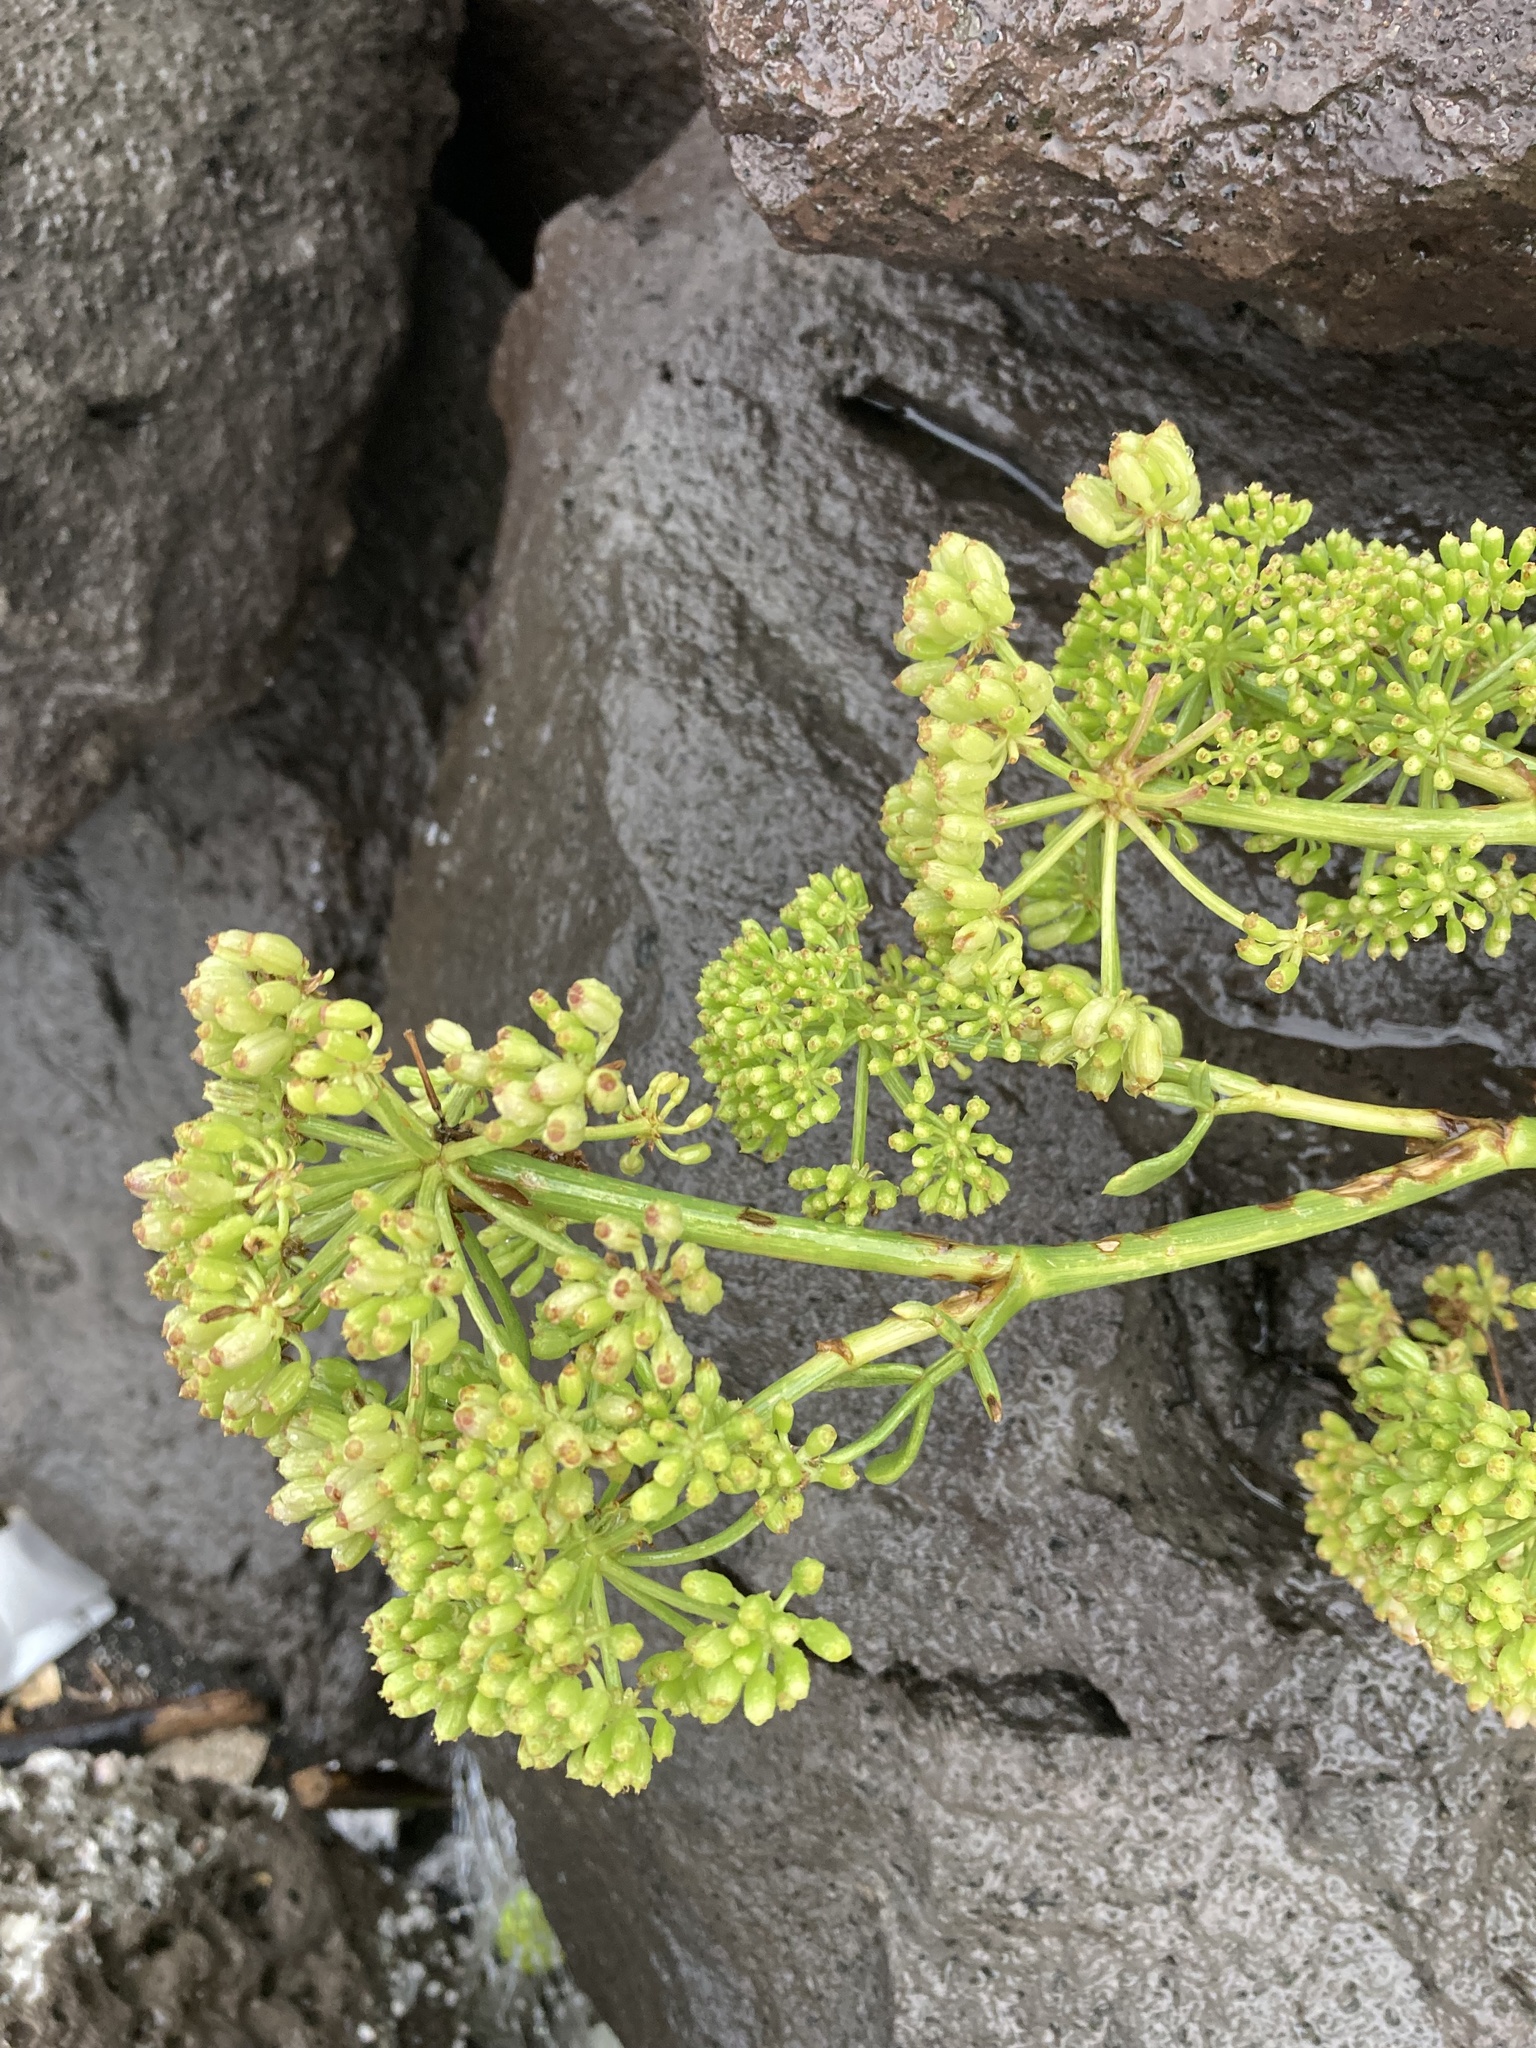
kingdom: Plantae
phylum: Tracheophyta
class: Magnoliopsida
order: Apiales
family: Apiaceae
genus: Crithmum
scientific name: Crithmum maritimum
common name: Rock samphire
